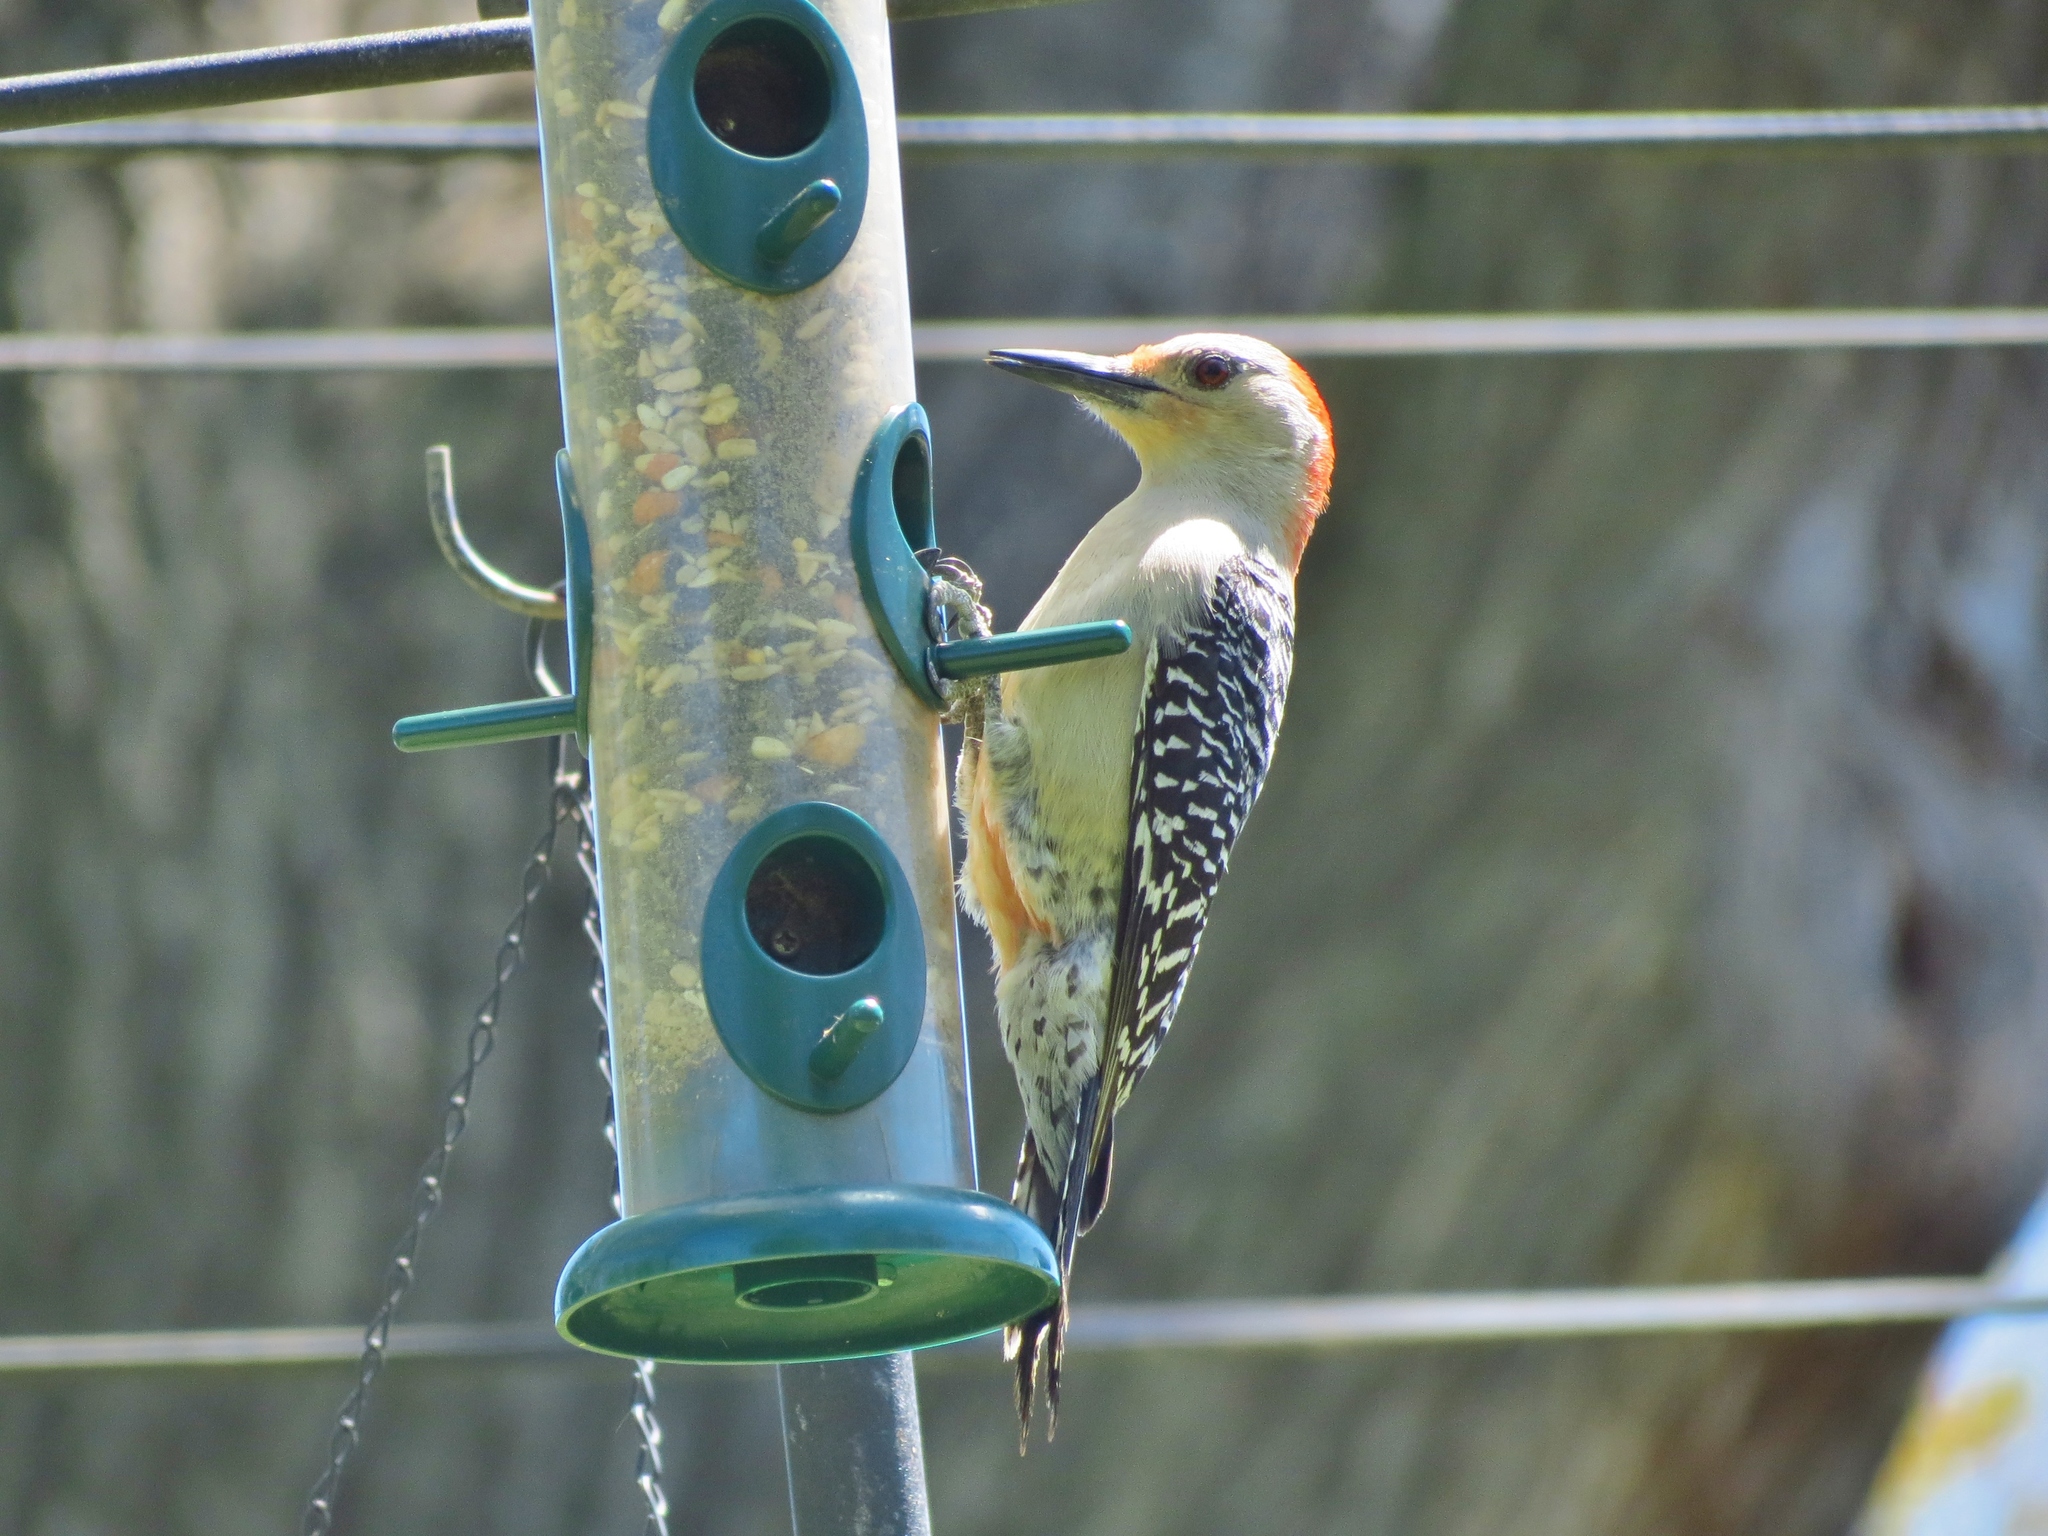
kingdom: Animalia
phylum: Chordata
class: Aves
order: Piciformes
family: Picidae
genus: Melanerpes
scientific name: Melanerpes carolinus
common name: Red-bellied woodpecker
